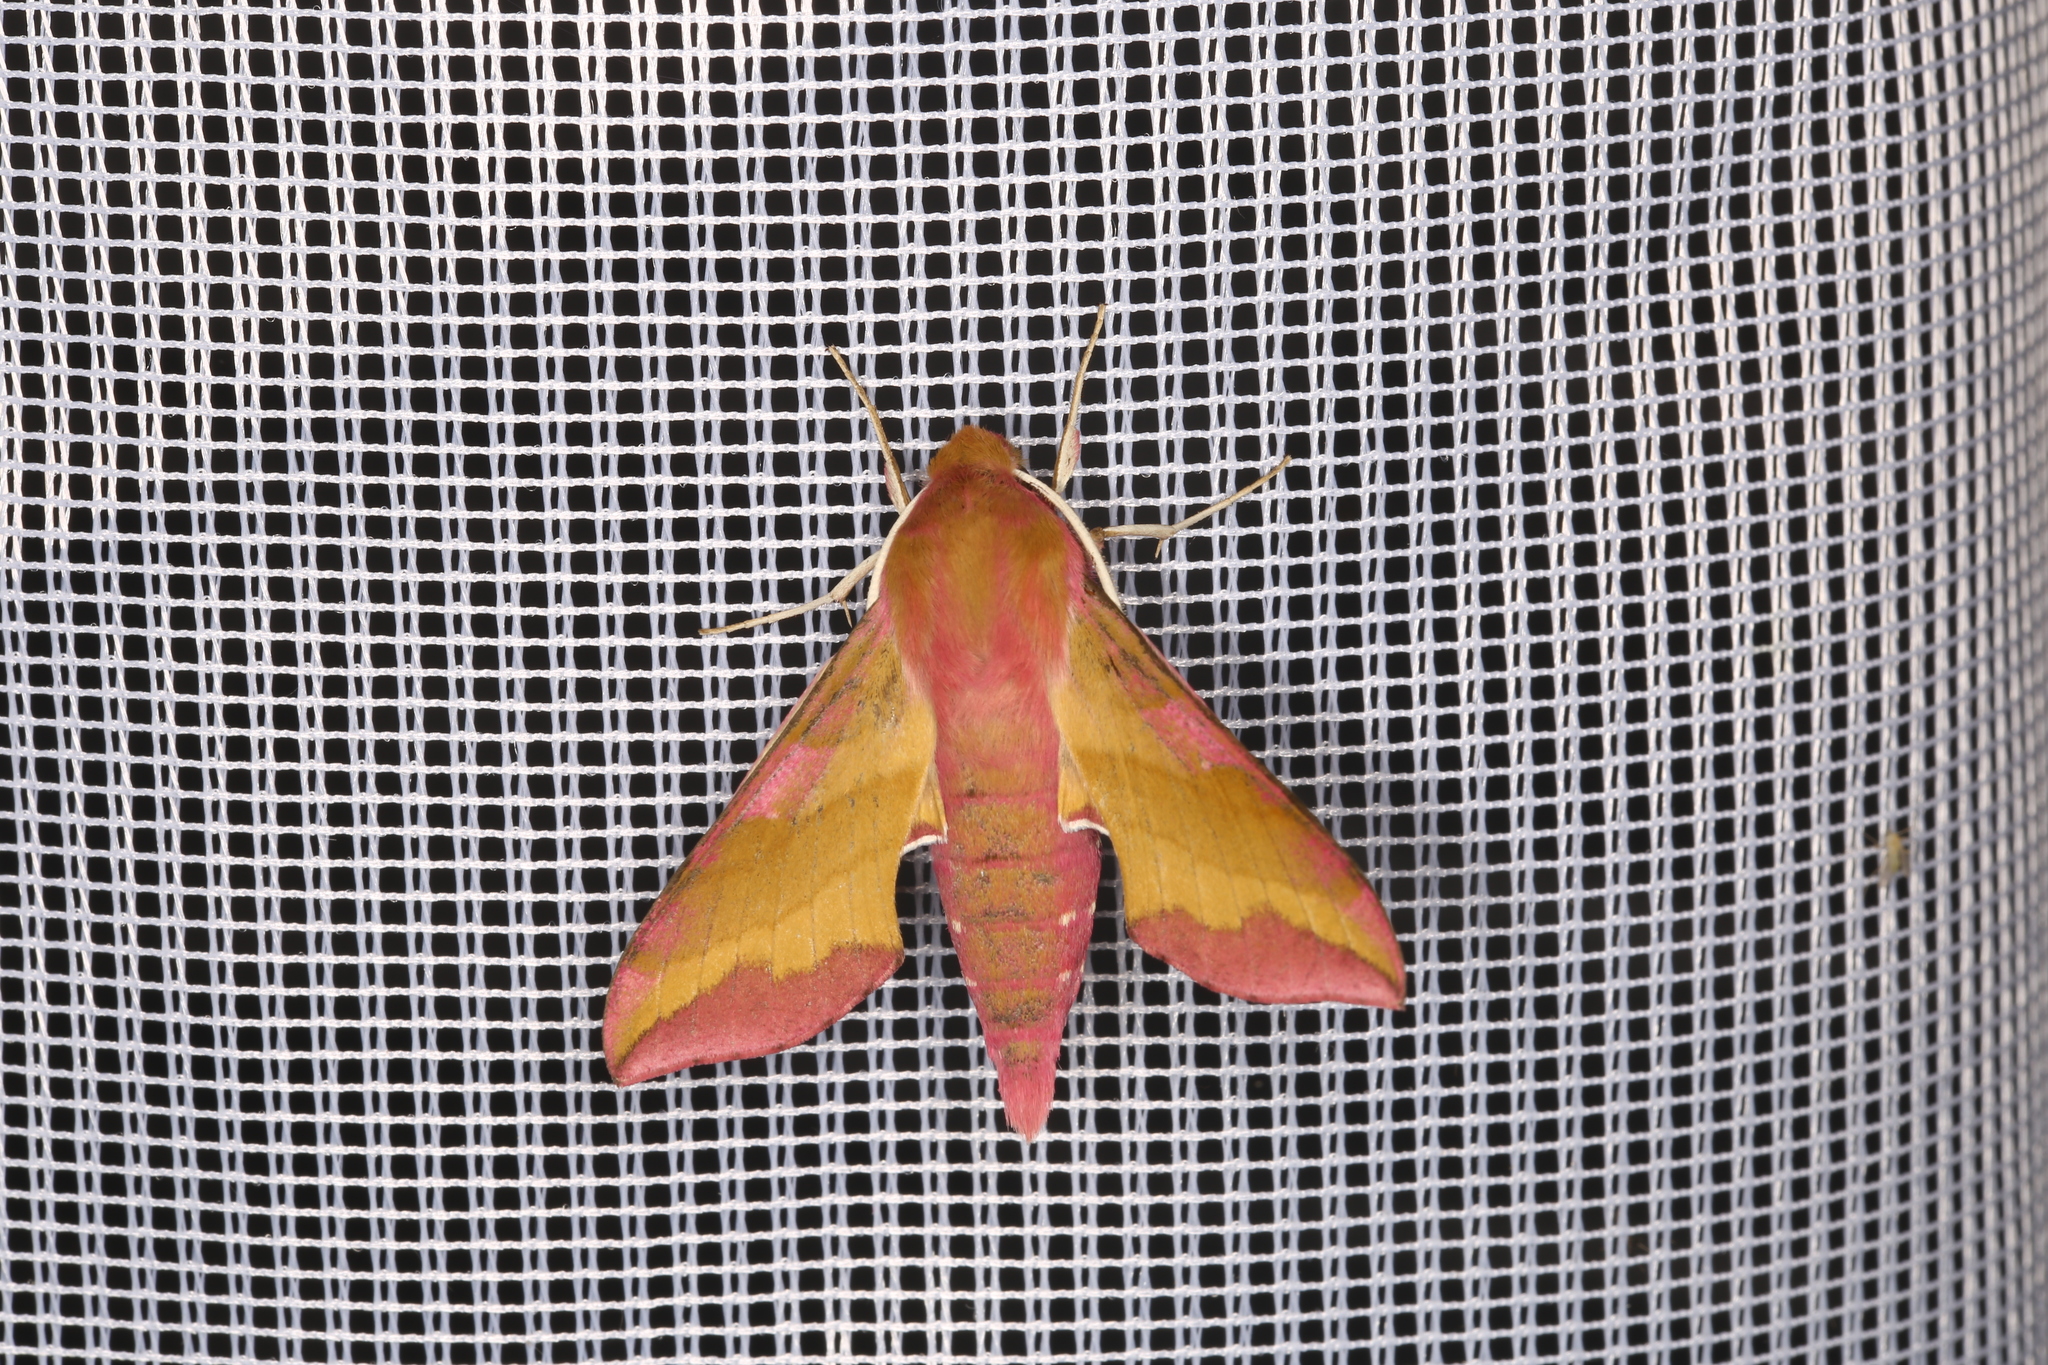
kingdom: Animalia
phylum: Arthropoda
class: Insecta
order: Lepidoptera
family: Sphingidae
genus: Deilephila
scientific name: Deilephila porcellus
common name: Small elephant hawk-moth
